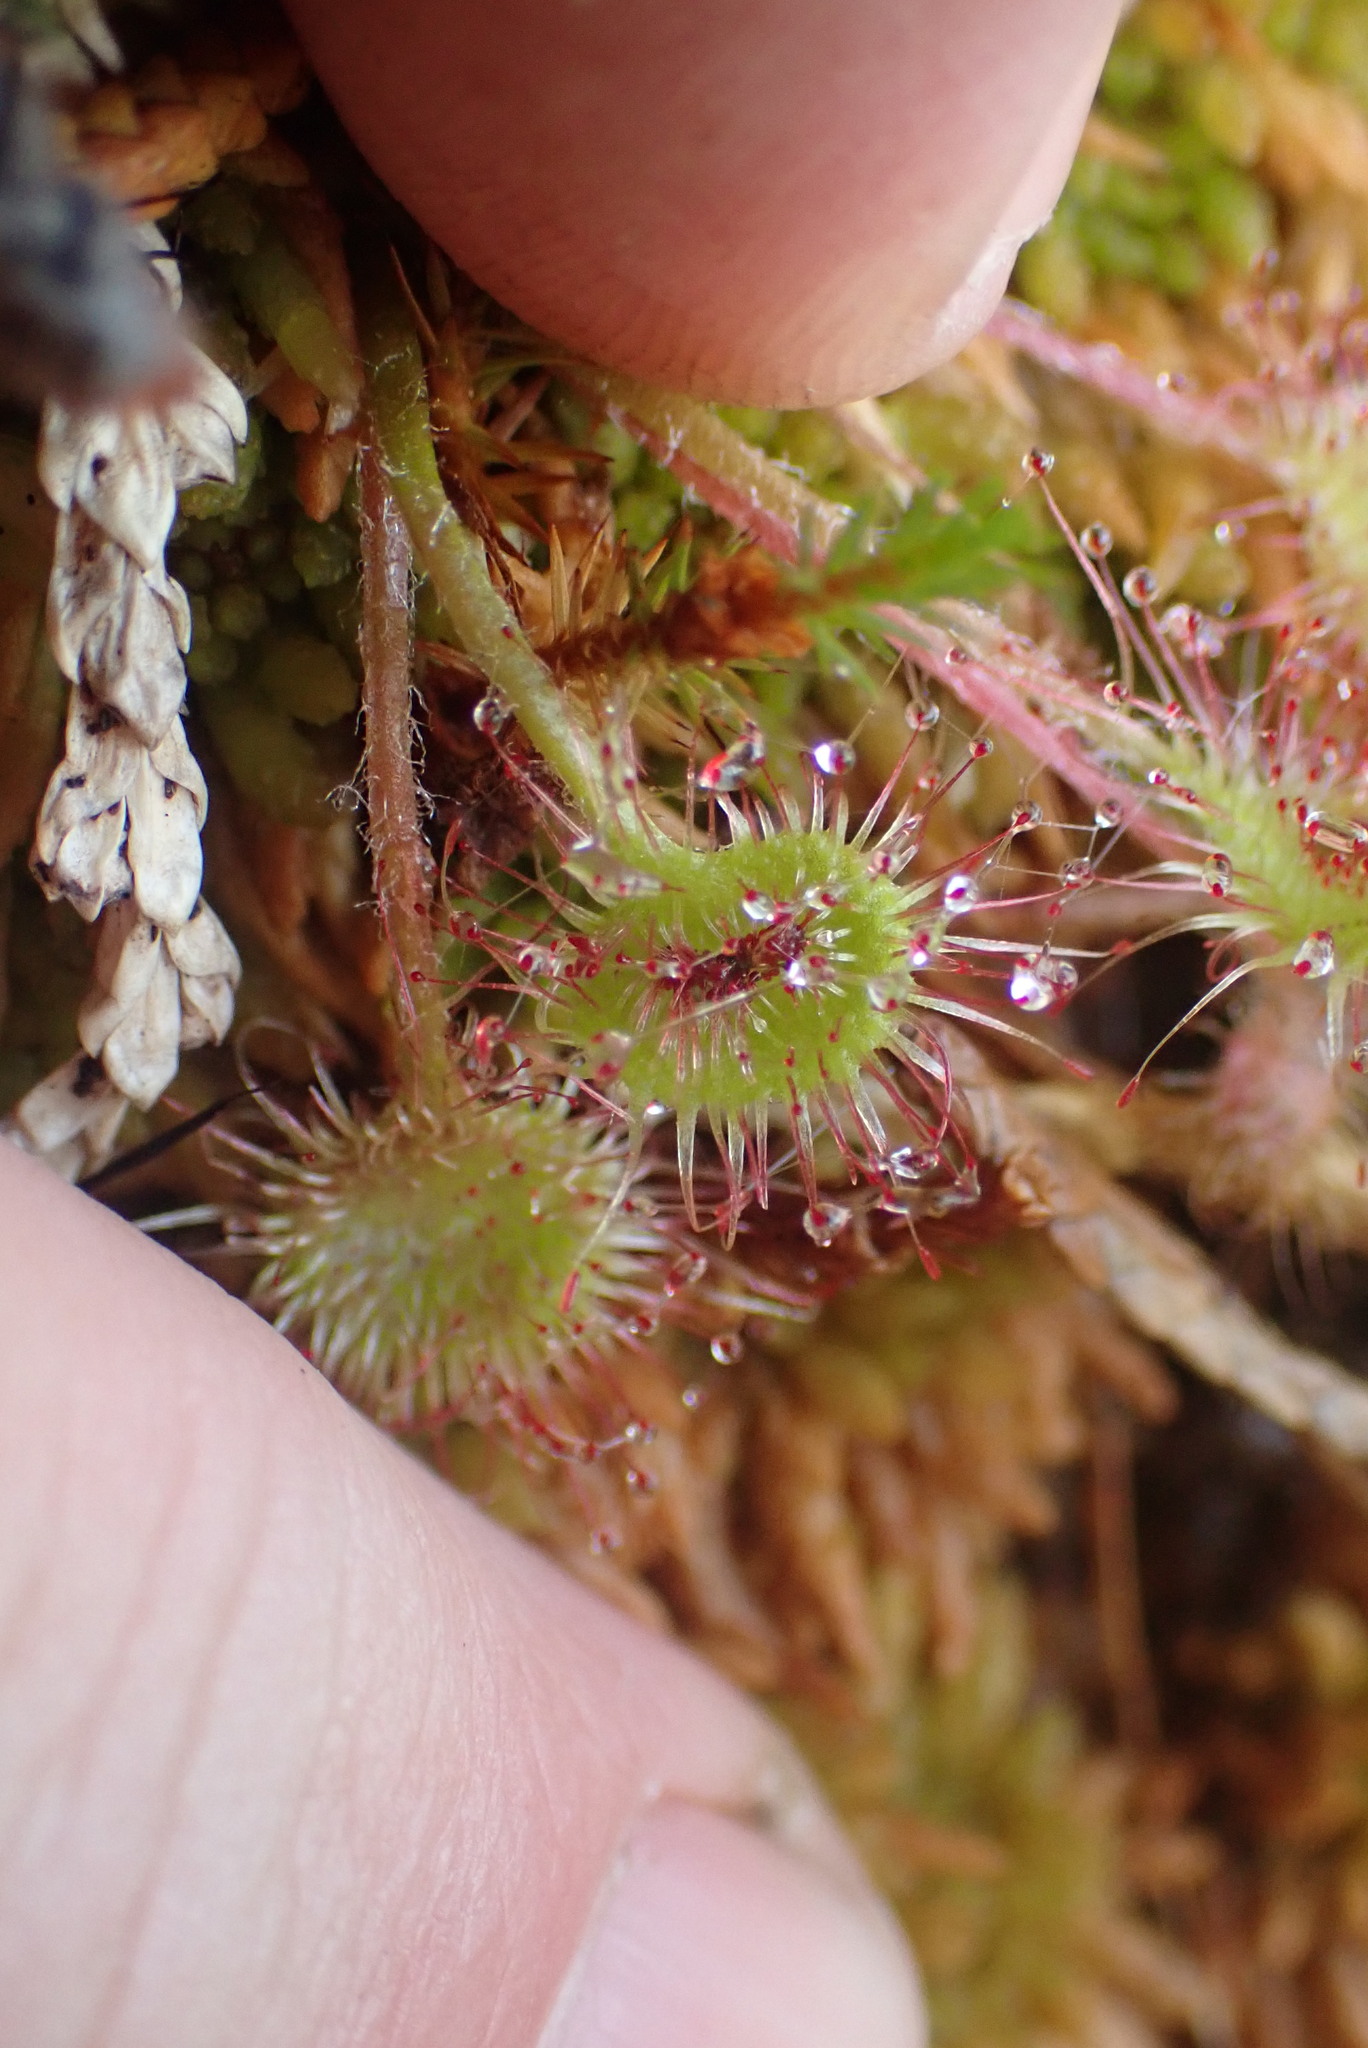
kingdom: Plantae
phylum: Tracheophyta
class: Magnoliopsida
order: Caryophyllales
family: Droseraceae
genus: Drosera
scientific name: Drosera rotundifolia
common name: Round-leaved sundew
